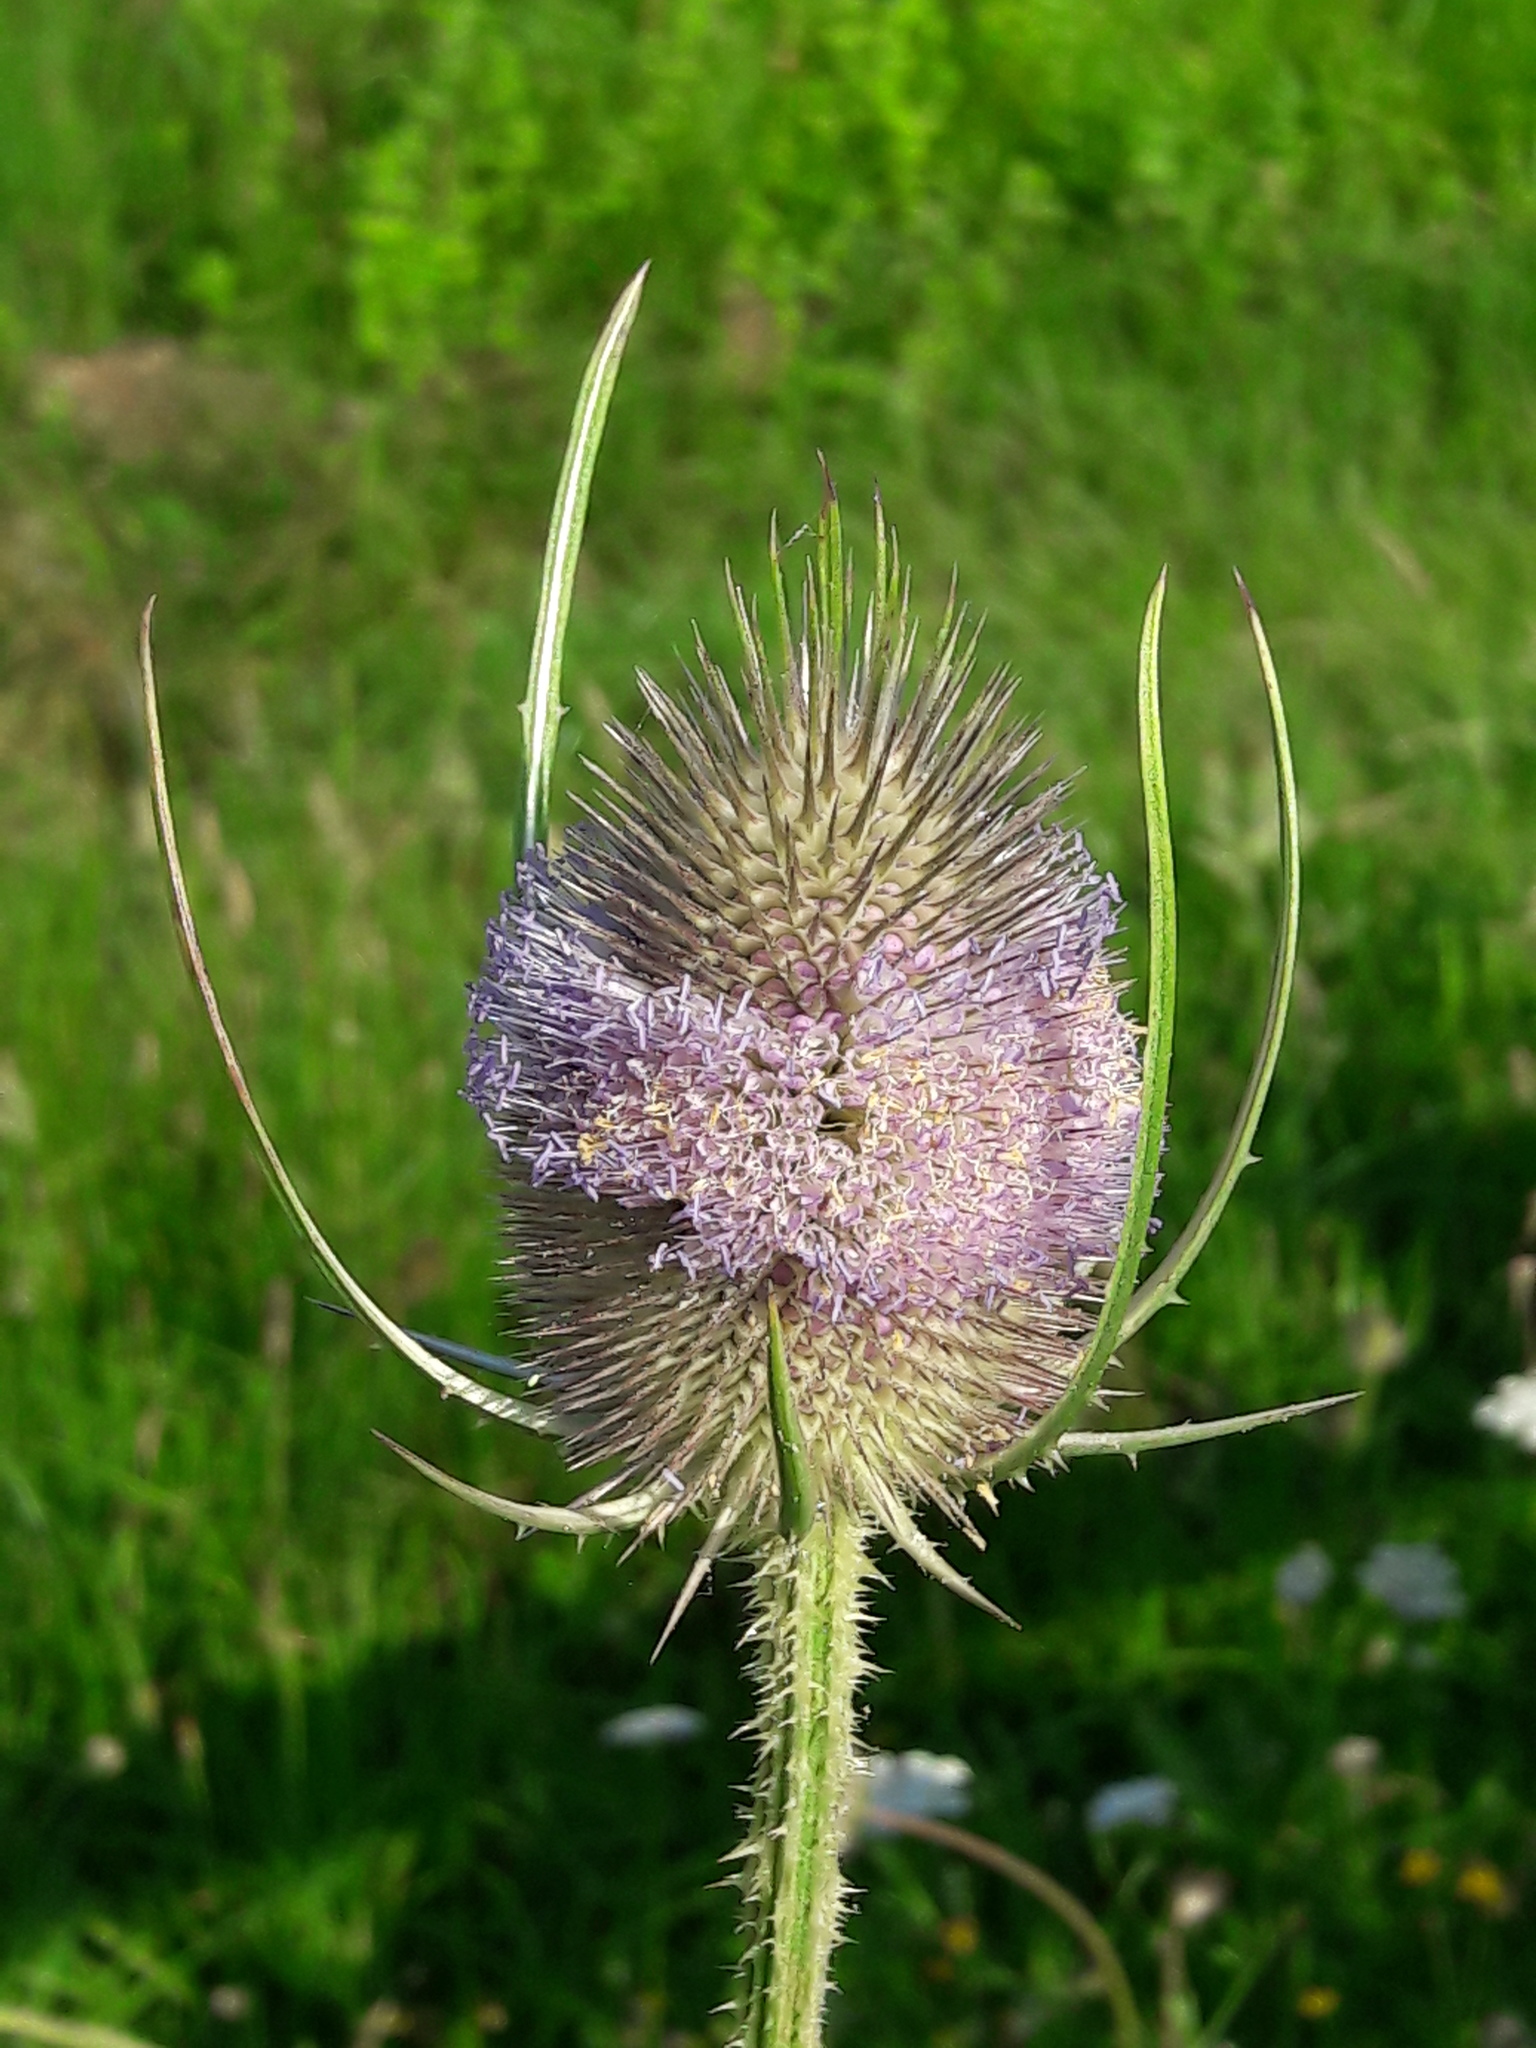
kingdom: Plantae
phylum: Tracheophyta
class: Magnoliopsida
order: Dipsacales
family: Caprifoliaceae
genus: Dipsacus
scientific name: Dipsacus fullonum
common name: Teasel
